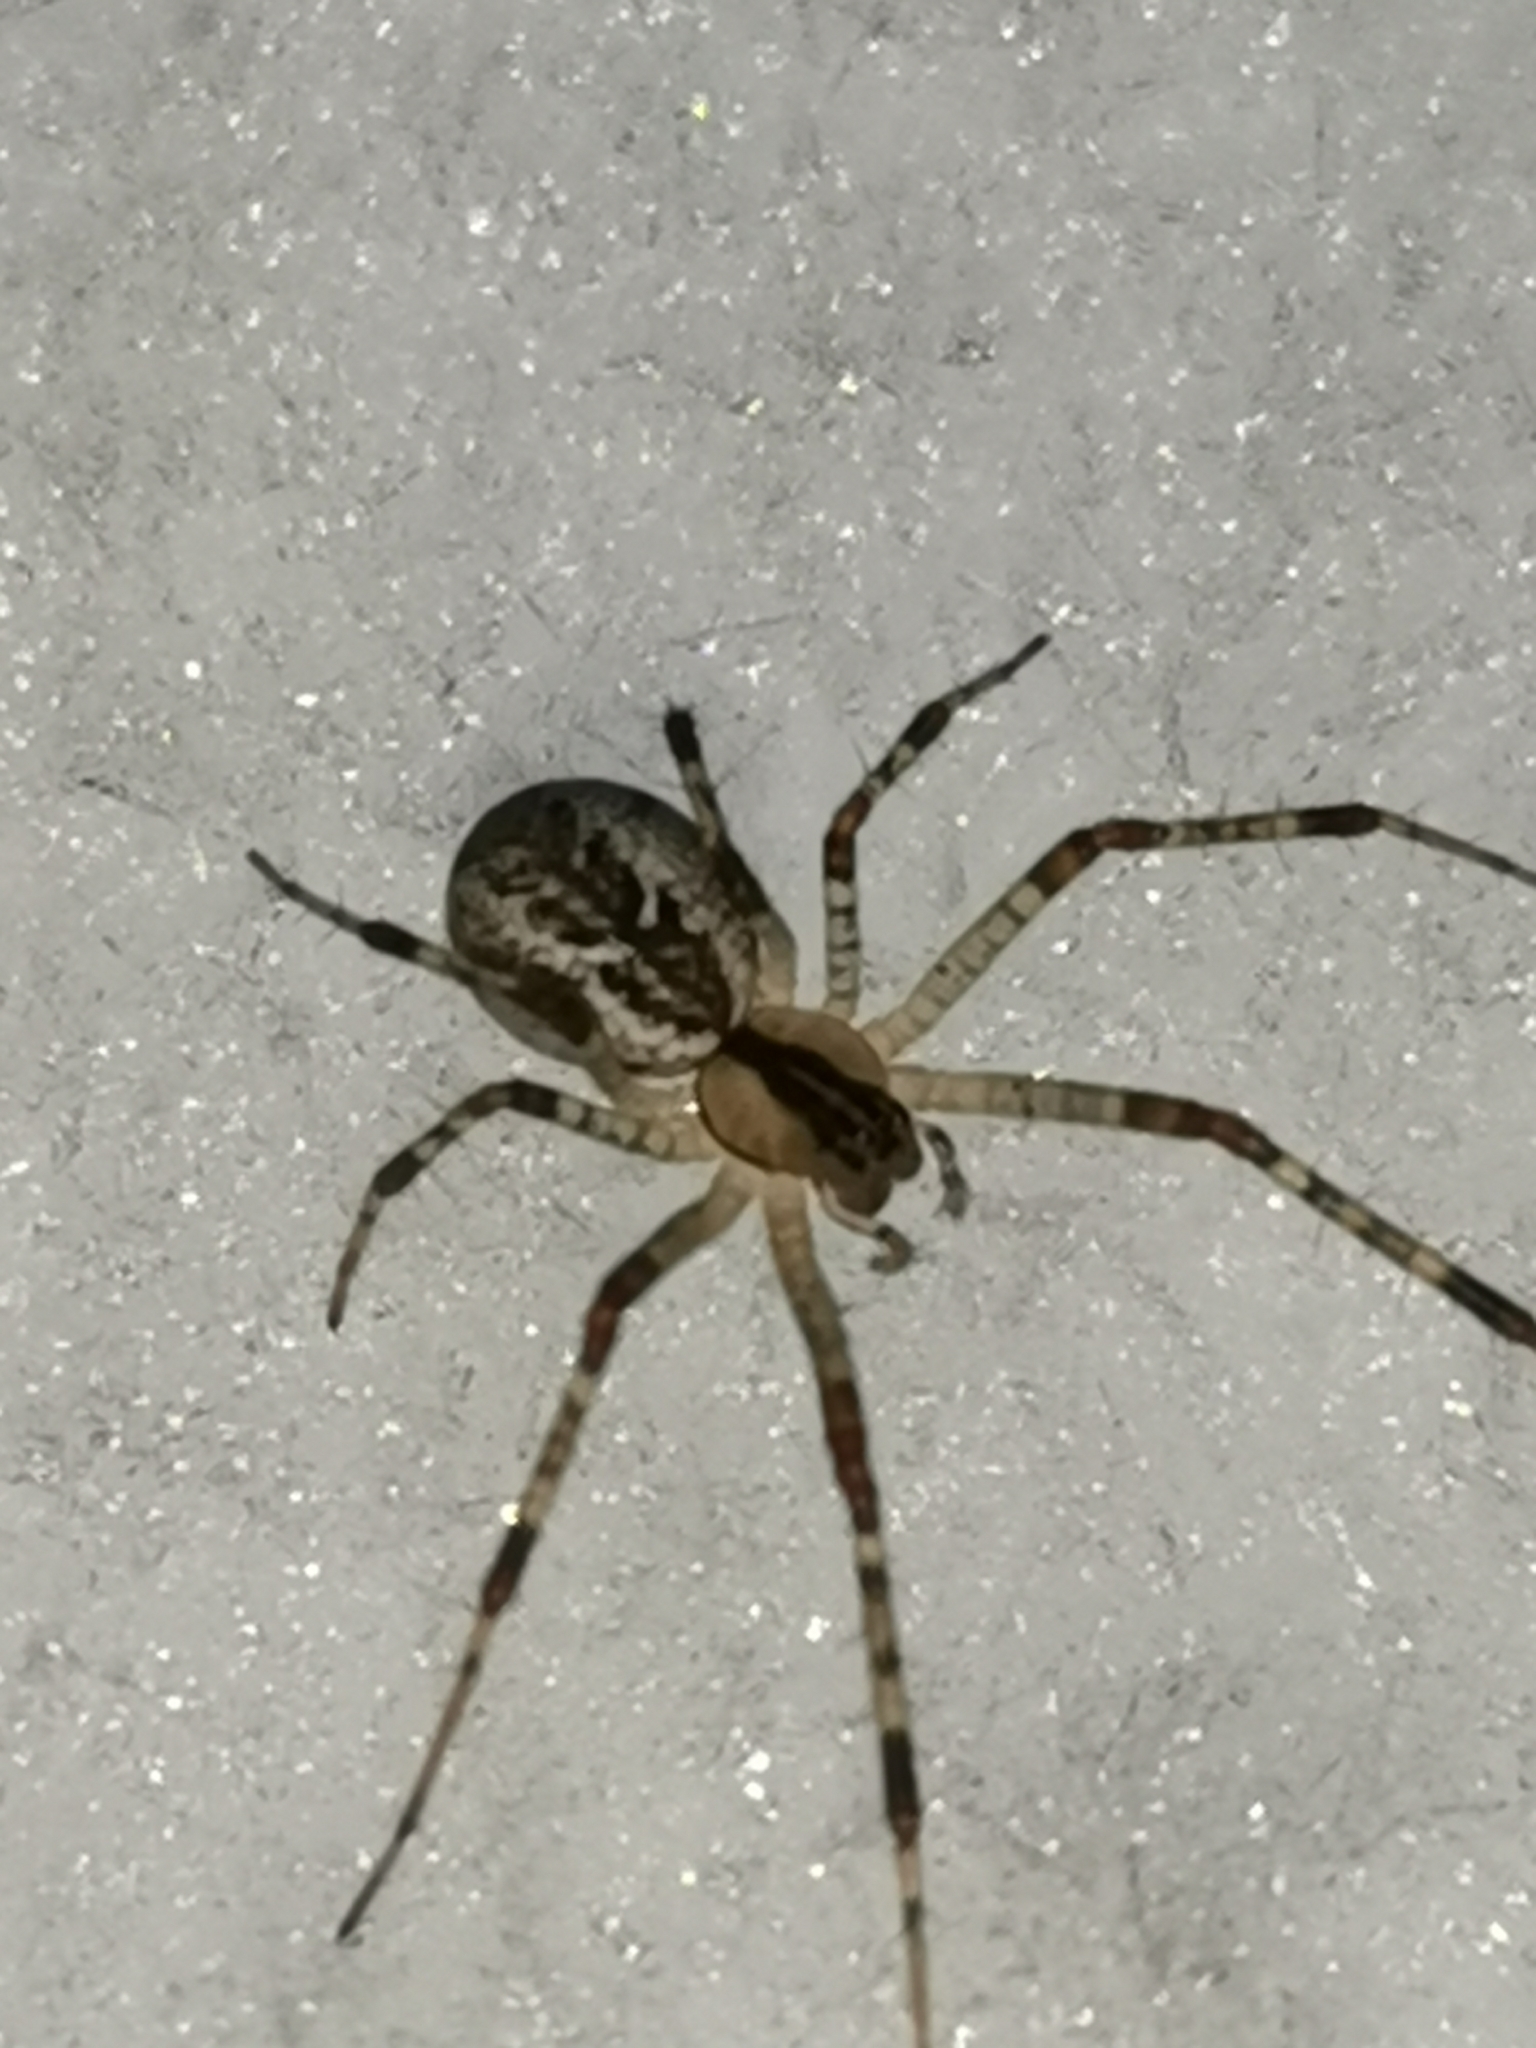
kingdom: Animalia
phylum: Arthropoda
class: Arachnida
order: Araneae
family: Linyphiidae
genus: Pityohyphantes
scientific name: Pityohyphantes phrygianus
